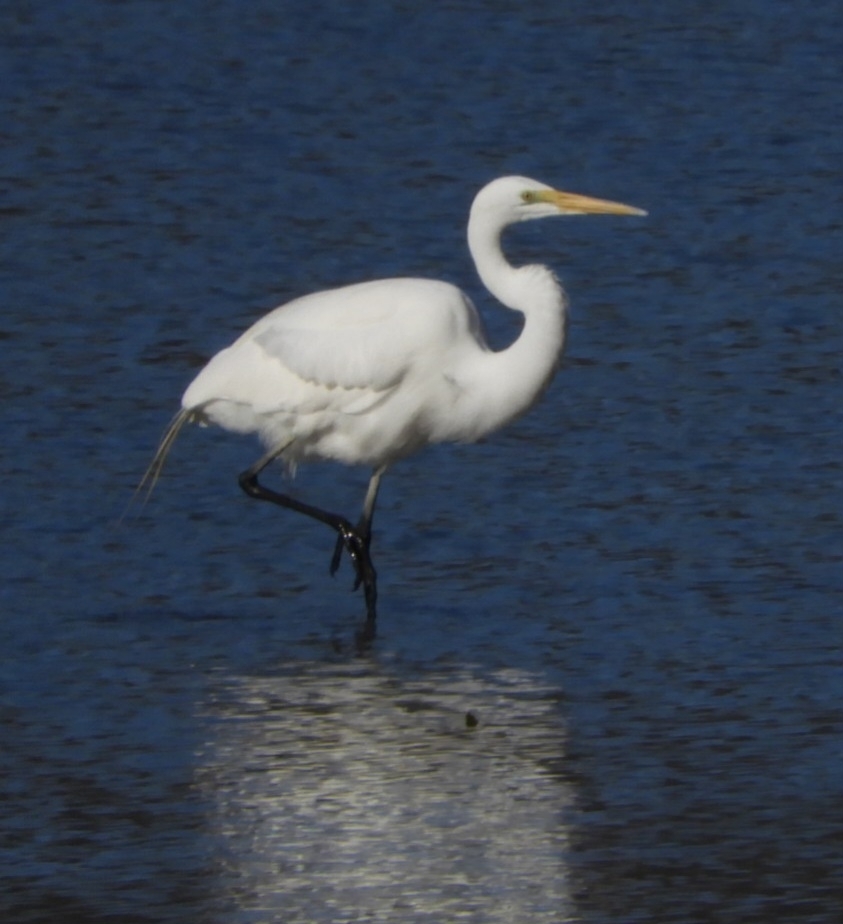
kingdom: Animalia
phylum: Chordata
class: Aves
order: Pelecaniformes
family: Ardeidae
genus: Ardea
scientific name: Ardea alba
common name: Great egret
